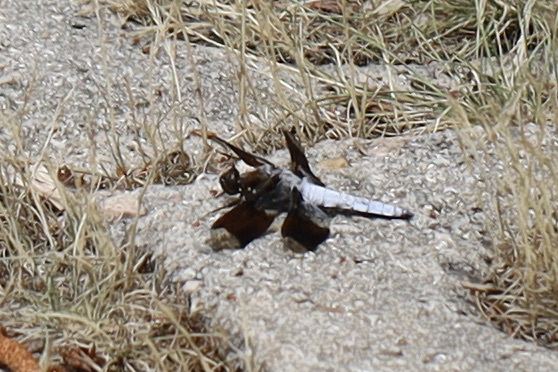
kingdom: Animalia
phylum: Arthropoda
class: Insecta
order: Odonata
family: Libellulidae
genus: Plathemis
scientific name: Plathemis lydia
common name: Common whitetail
